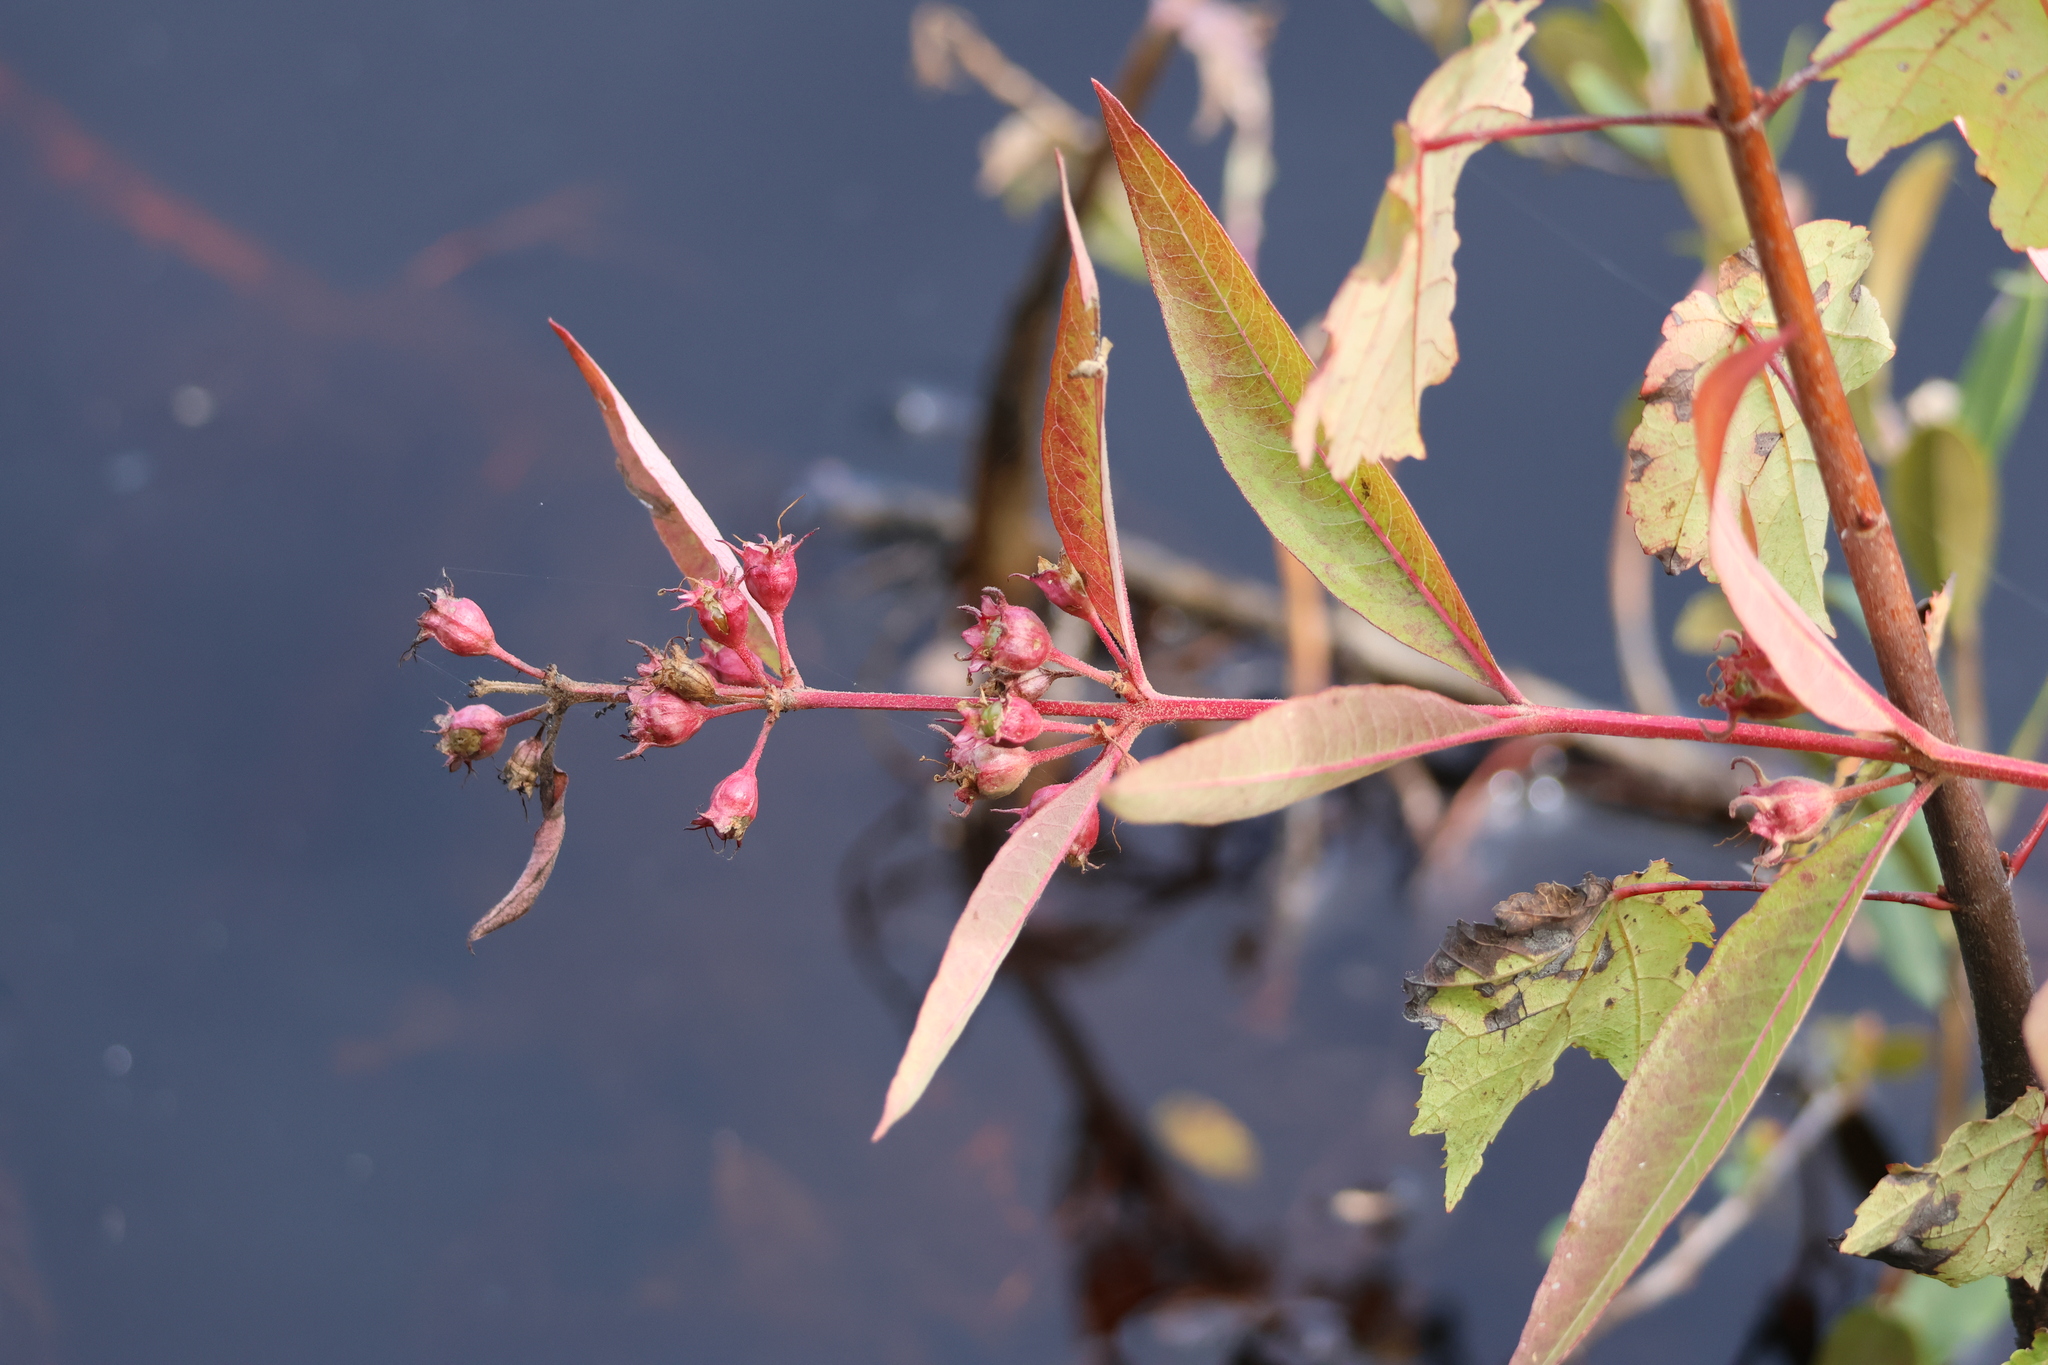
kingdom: Plantae
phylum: Tracheophyta
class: Magnoliopsida
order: Myrtales
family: Lythraceae
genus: Decodon
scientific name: Decodon verticillatus
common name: Hairy swamp loosestrife
